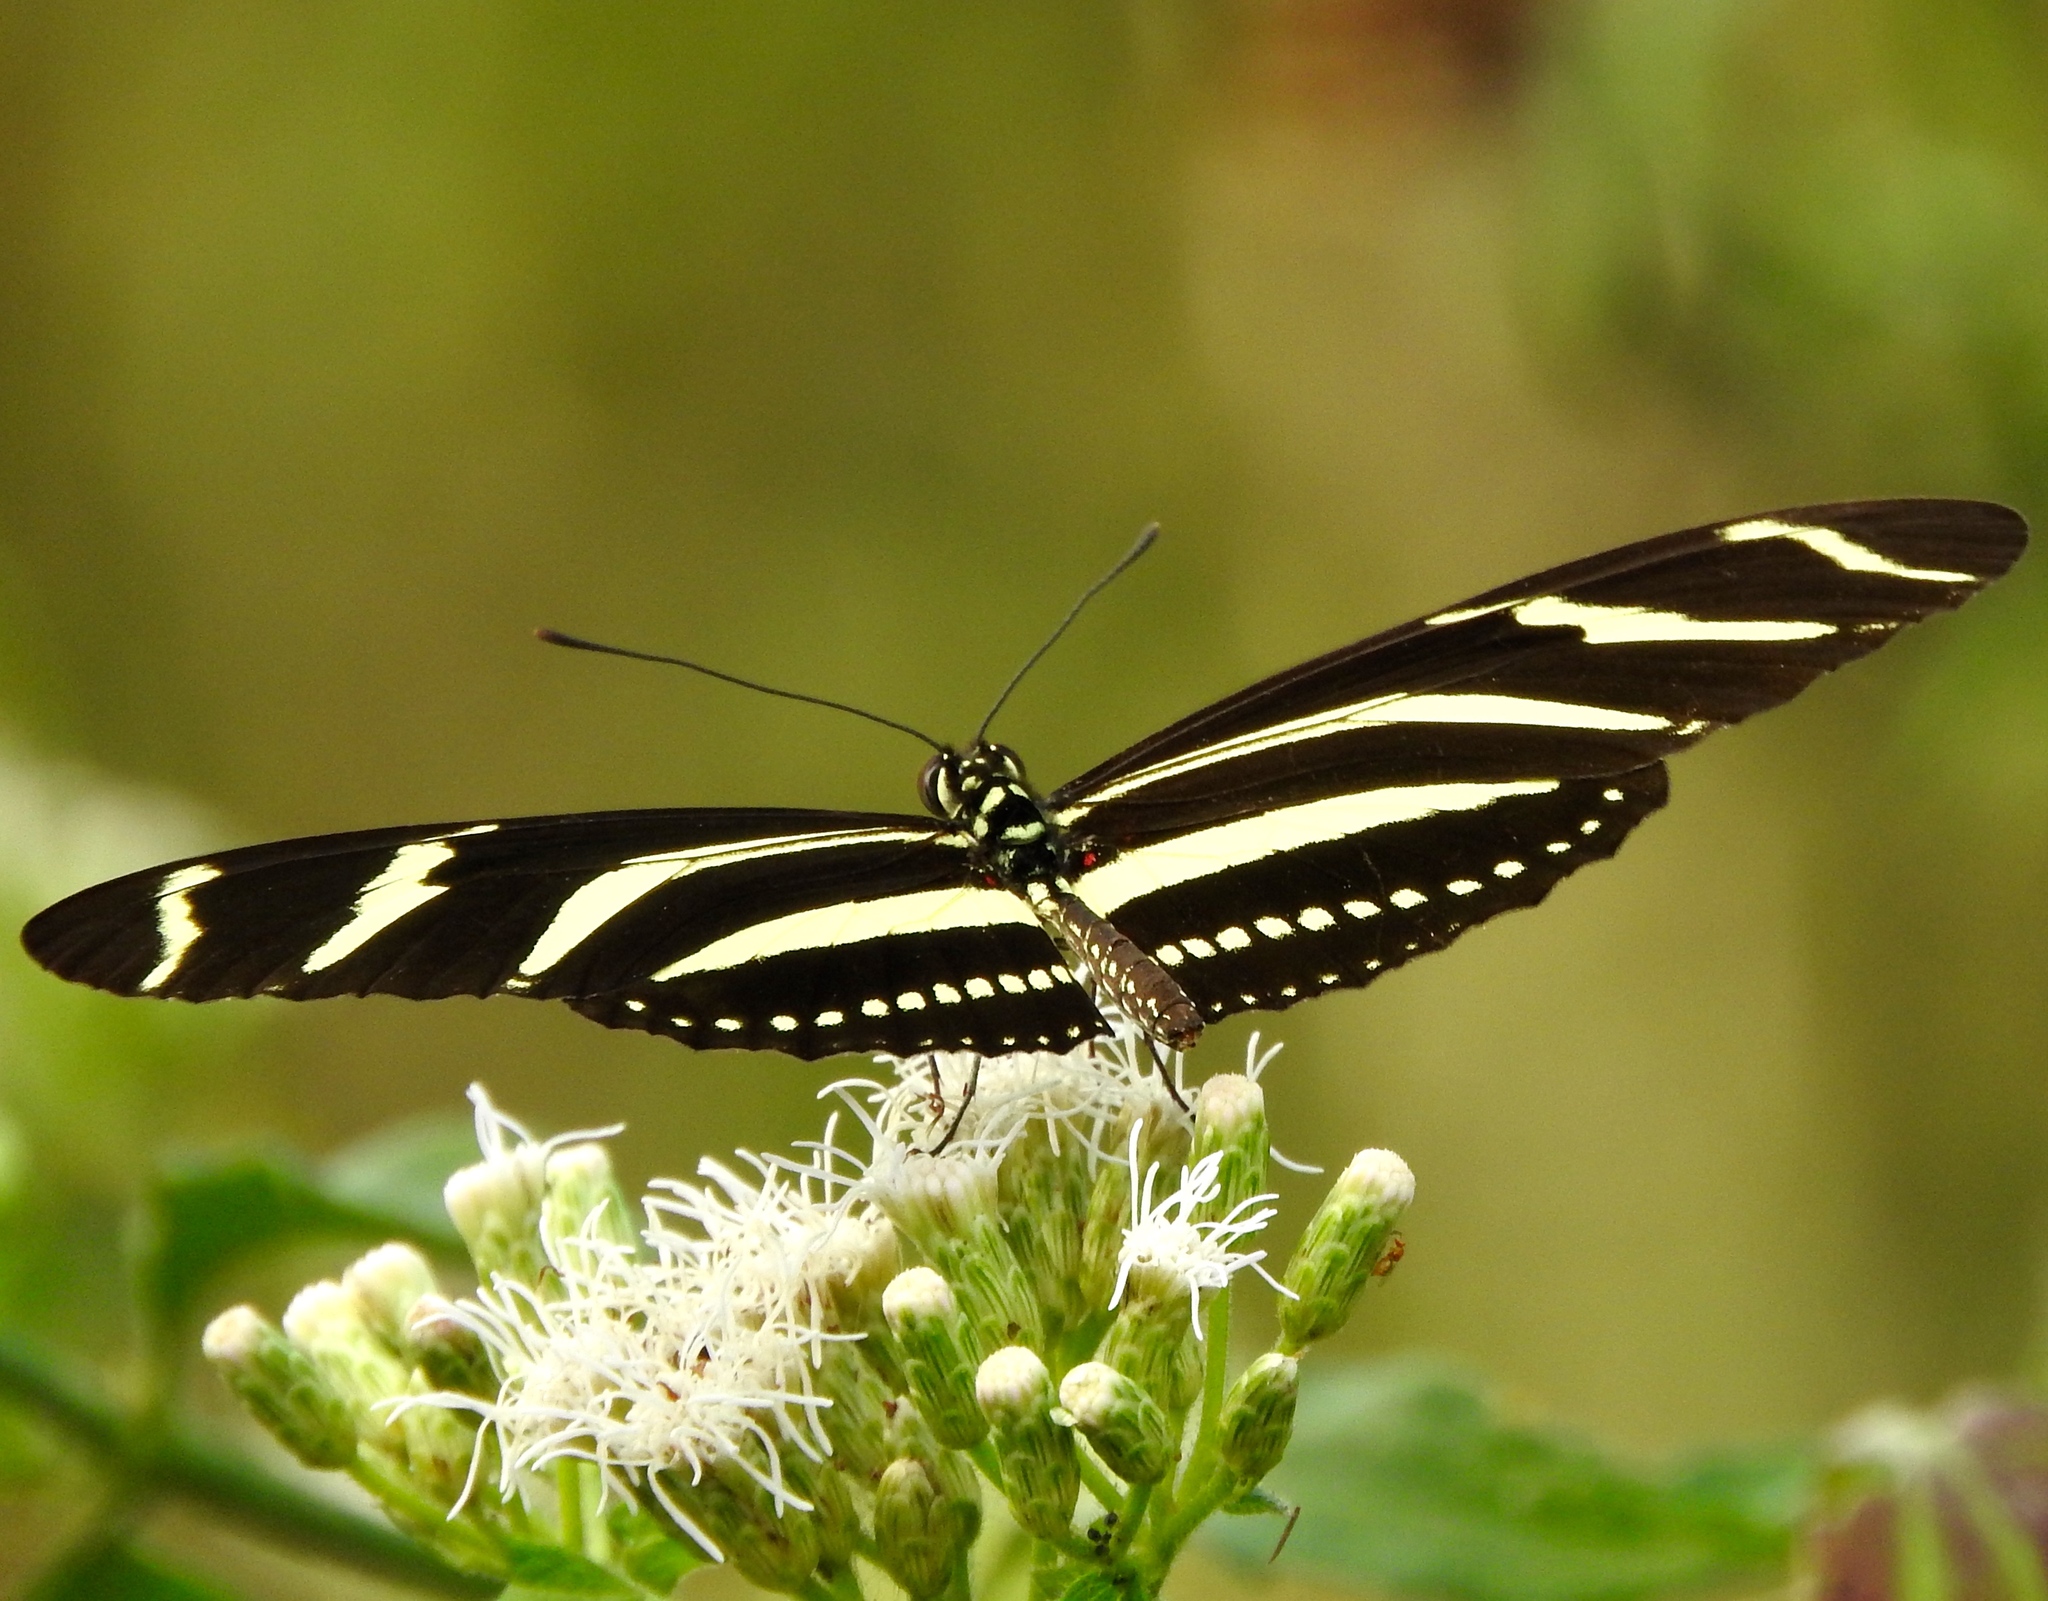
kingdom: Animalia
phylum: Arthropoda
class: Insecta
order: Lepidoptera
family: Nymphalidae
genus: Heliconius
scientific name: Heliconius charithonia
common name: Zebra long wing
